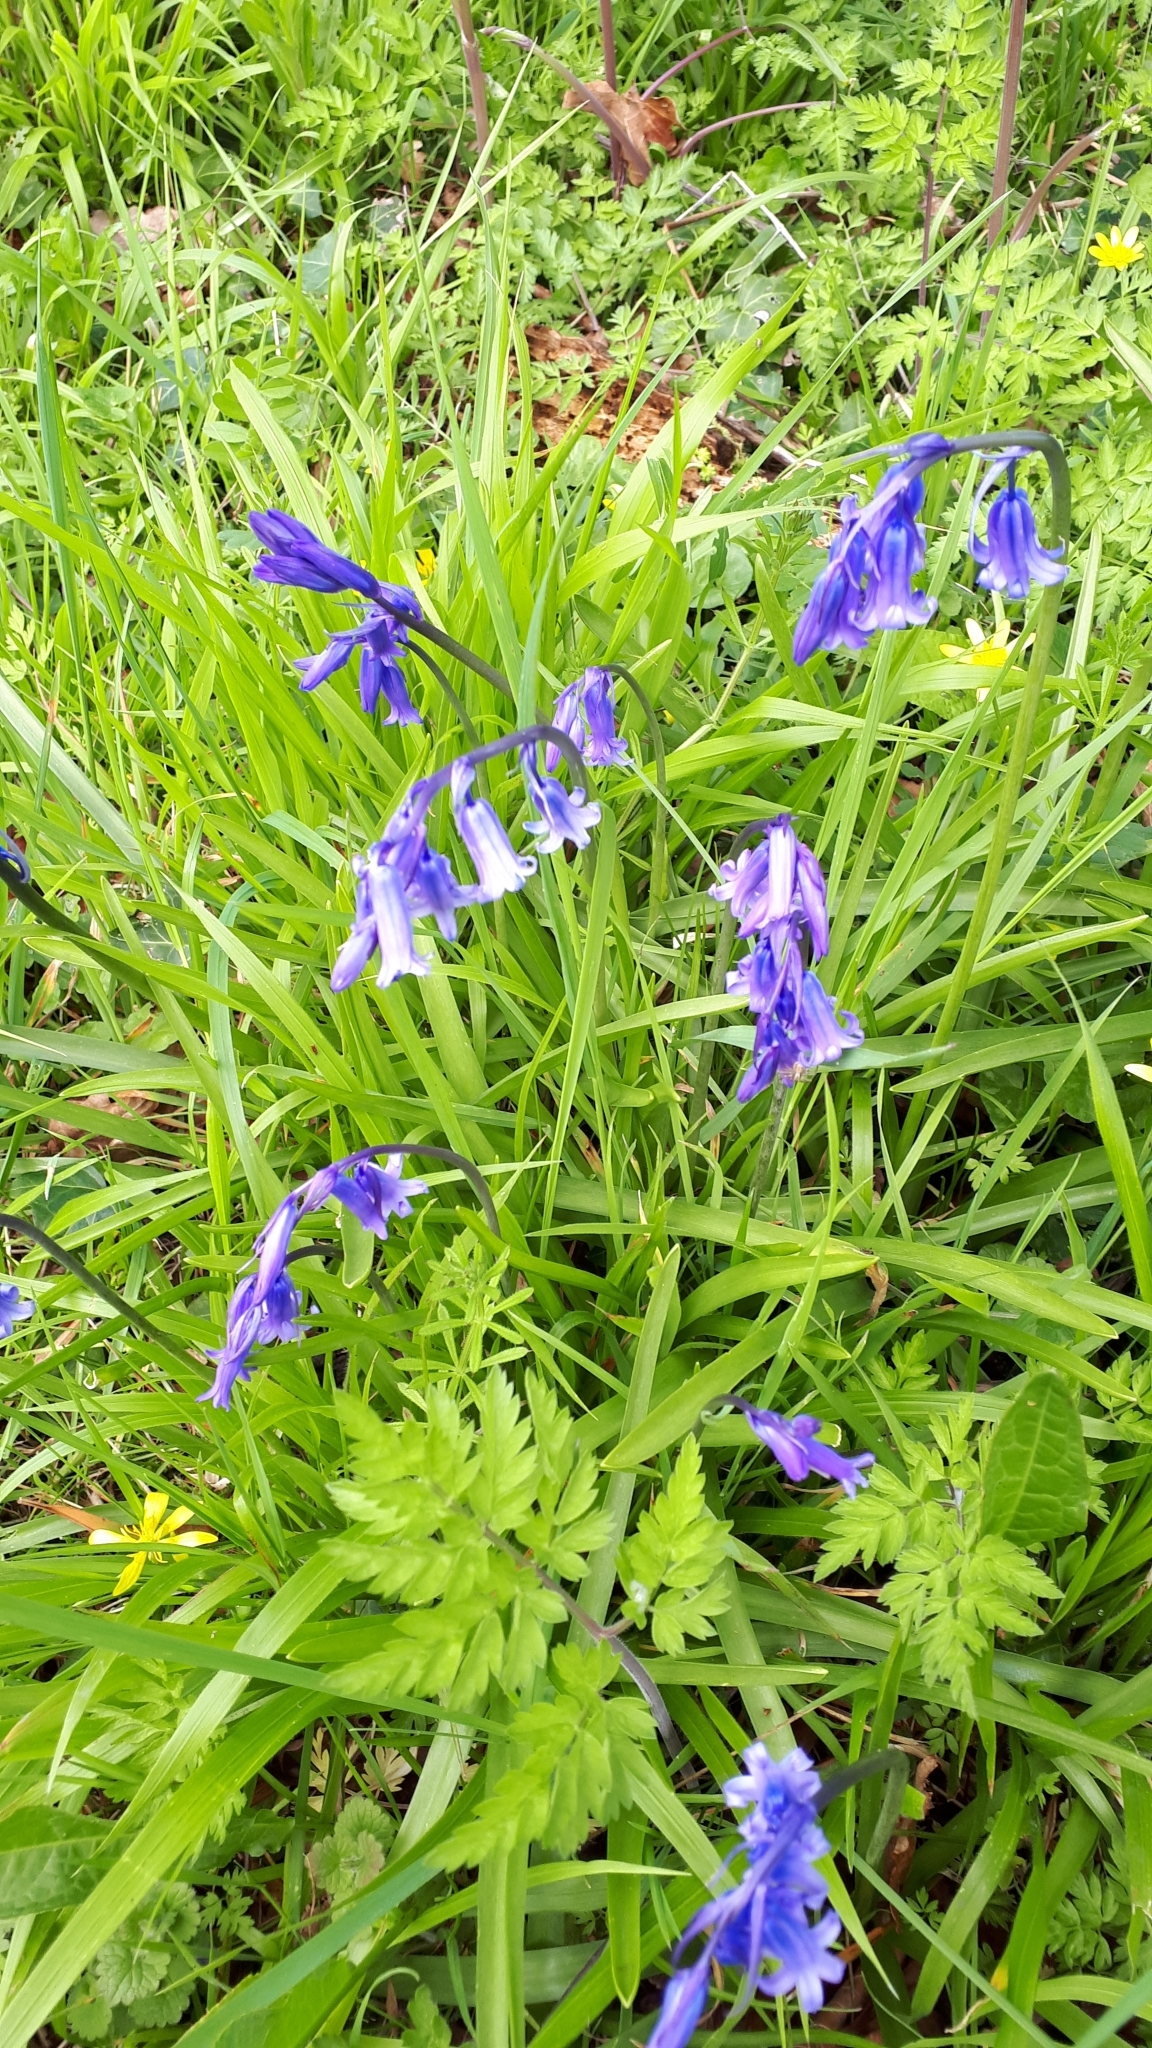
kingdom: Plantae
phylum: Tracheophyta
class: Liliopsida
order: Asparagales
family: Asparagaceae
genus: Hyacinthoides
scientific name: Hyacinthoides non-scripta
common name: Bluebell
